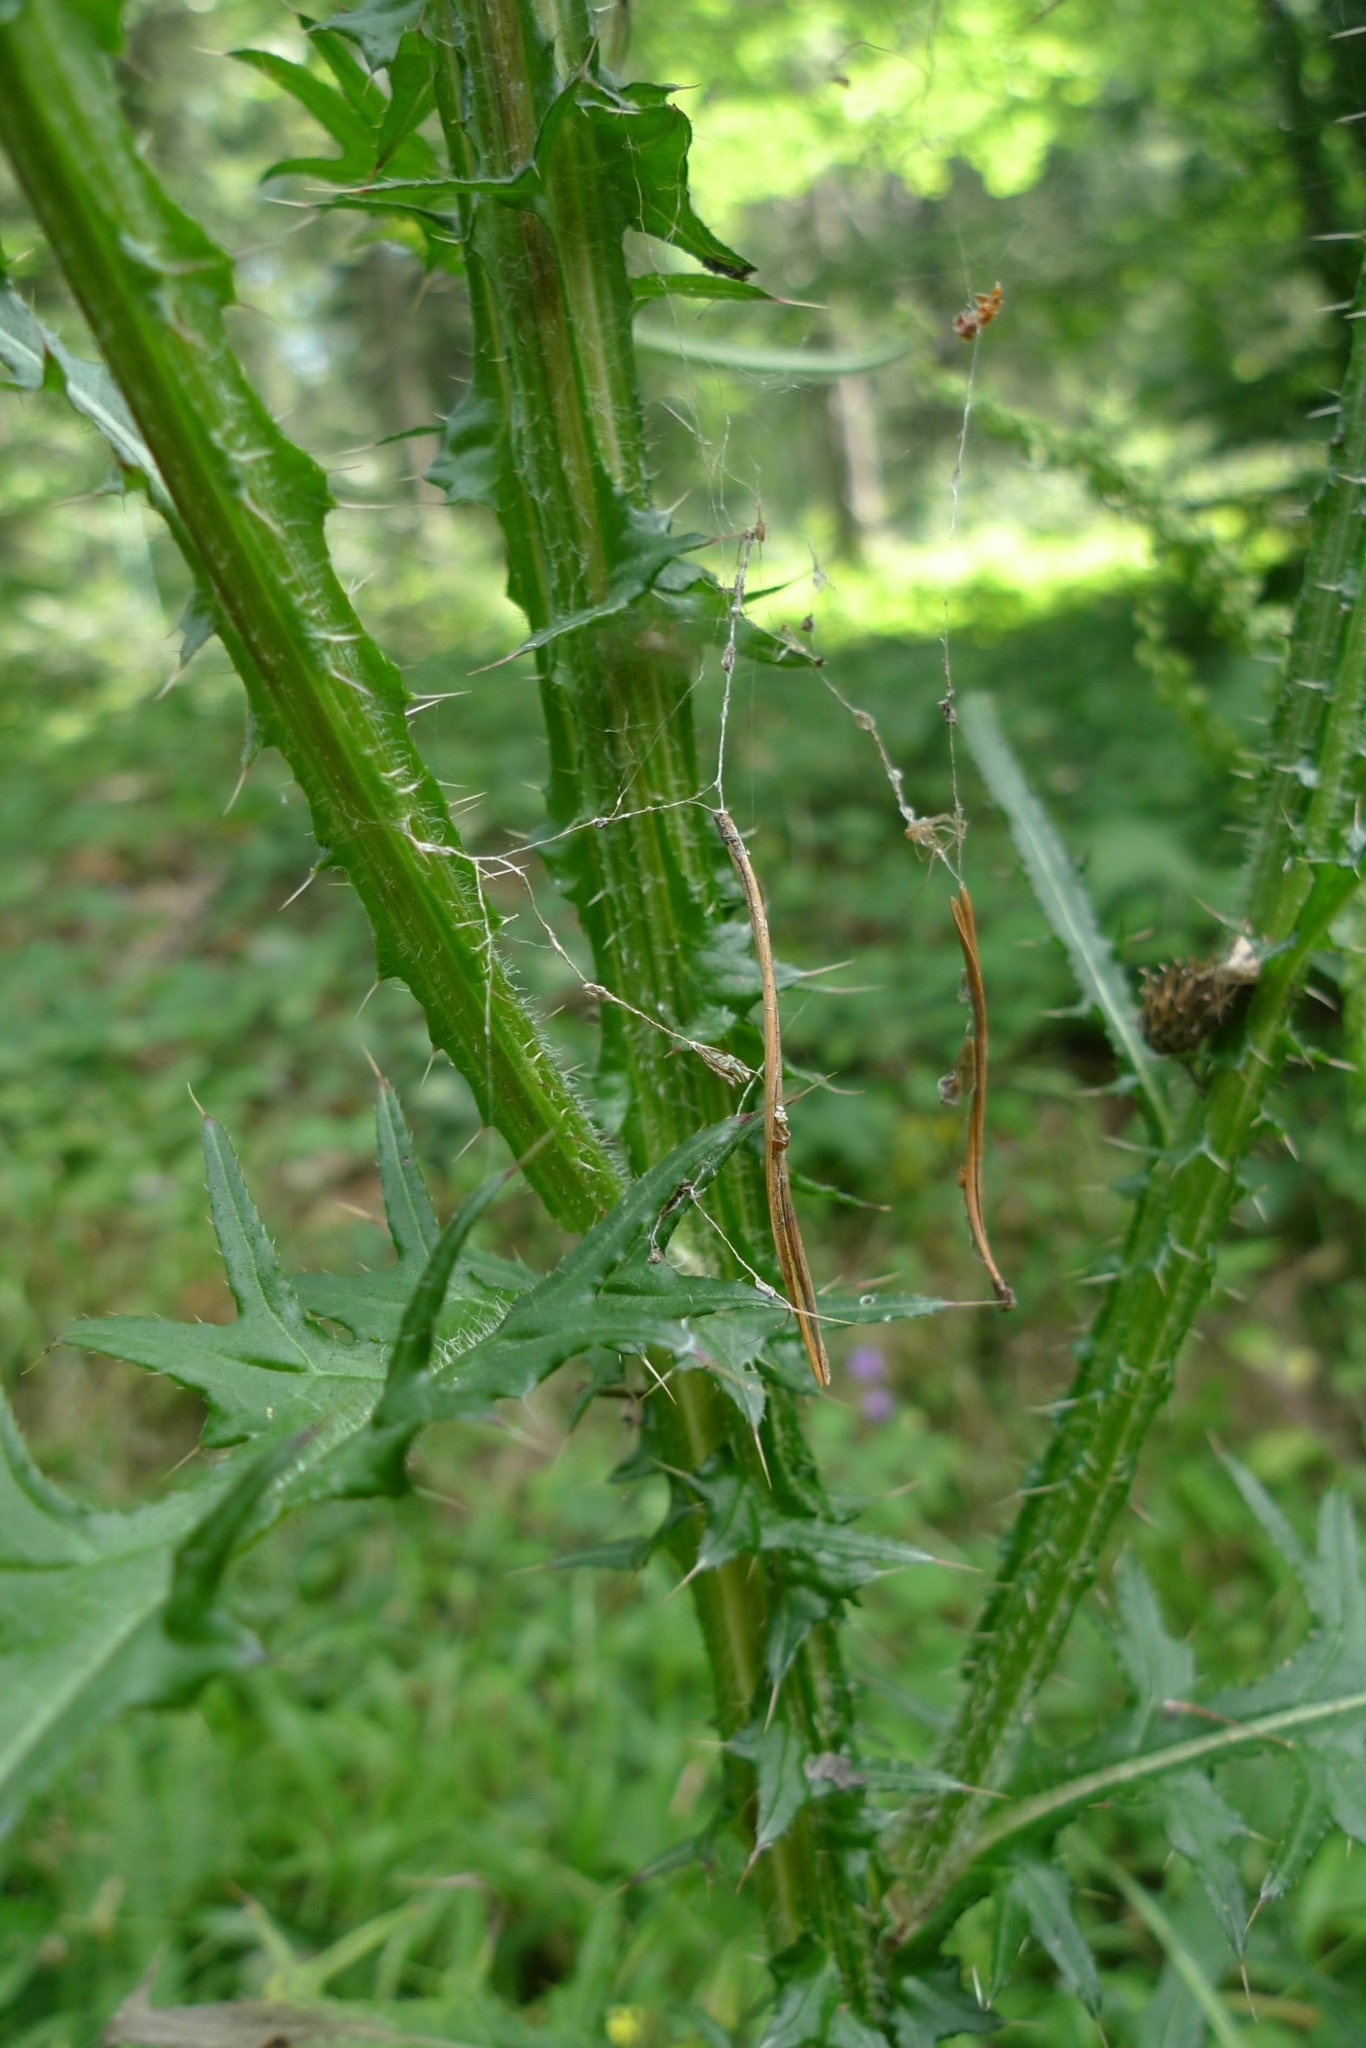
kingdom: Plantae
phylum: Tracheophyta
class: Magnoliopsida
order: Asterales
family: Asteraceae
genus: Cirsium
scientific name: Cirsium palustre
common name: Marsh thistle
